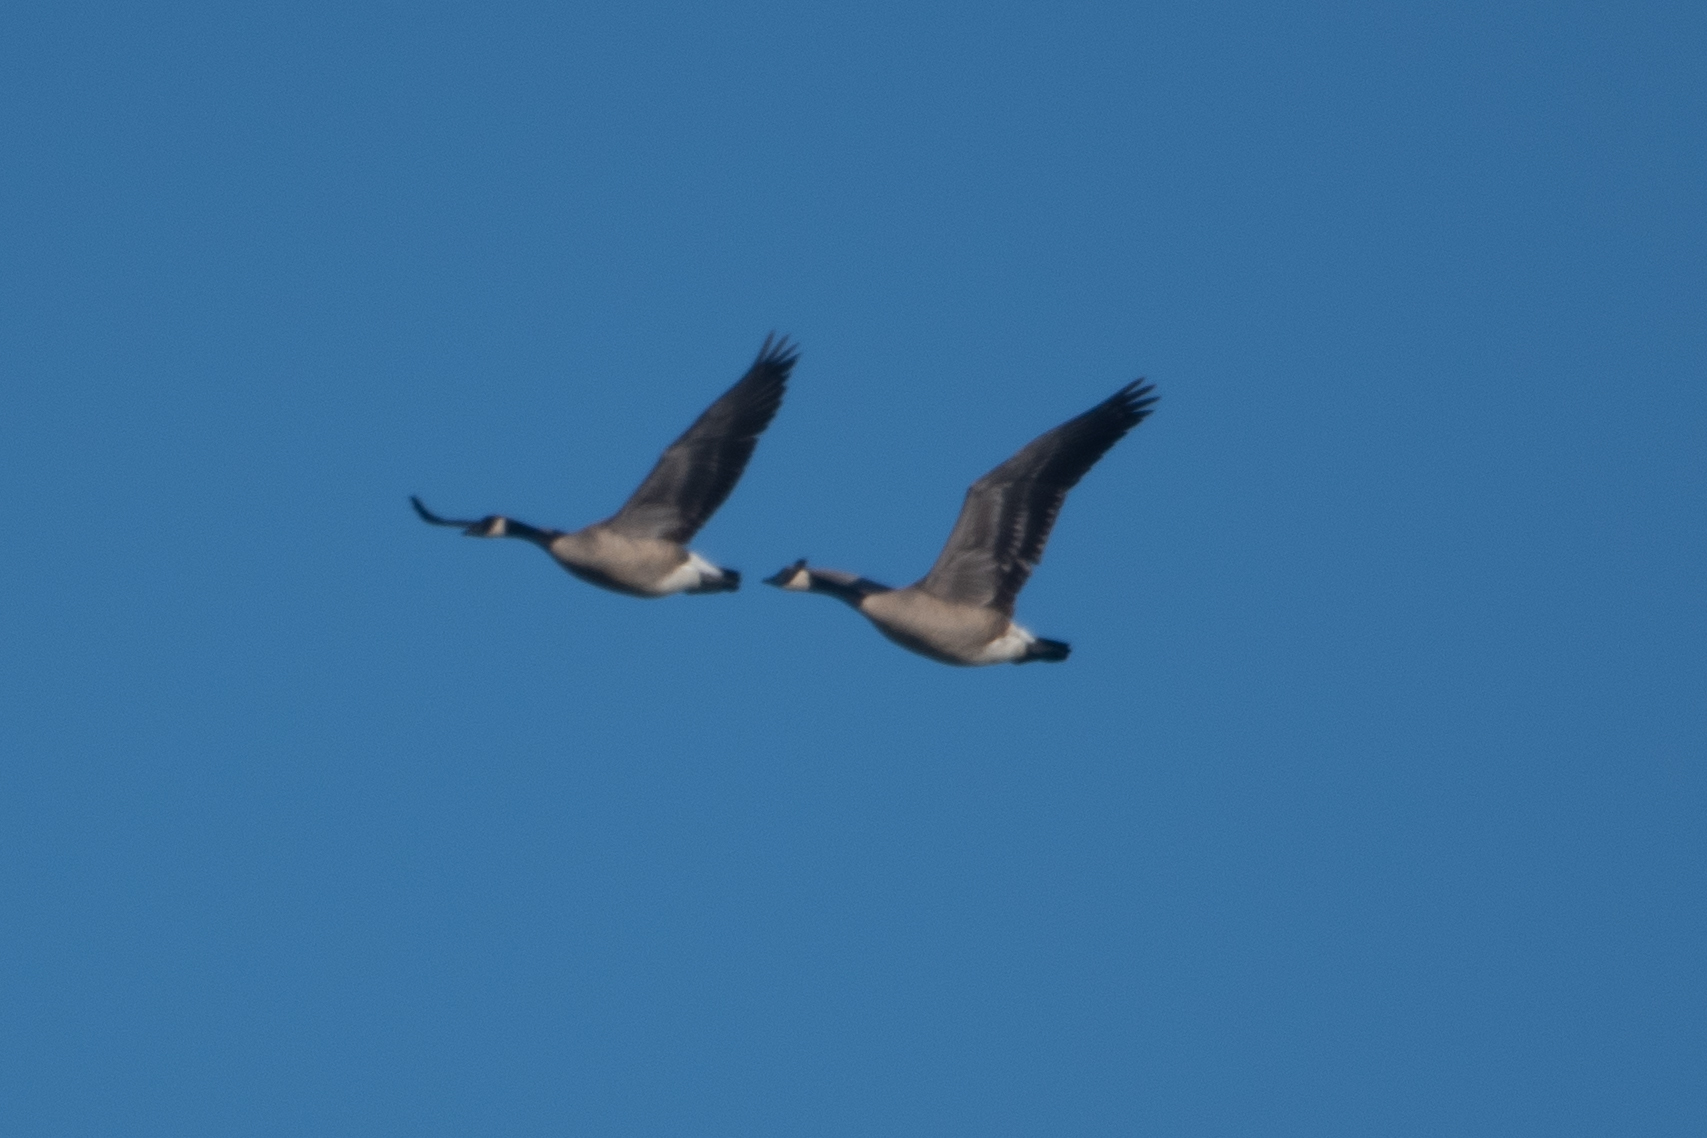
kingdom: Animalia
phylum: Chordata
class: Aves
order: Anseriformes
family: Anatidae
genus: Branta
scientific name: Branta canadensis
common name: Canada goose
